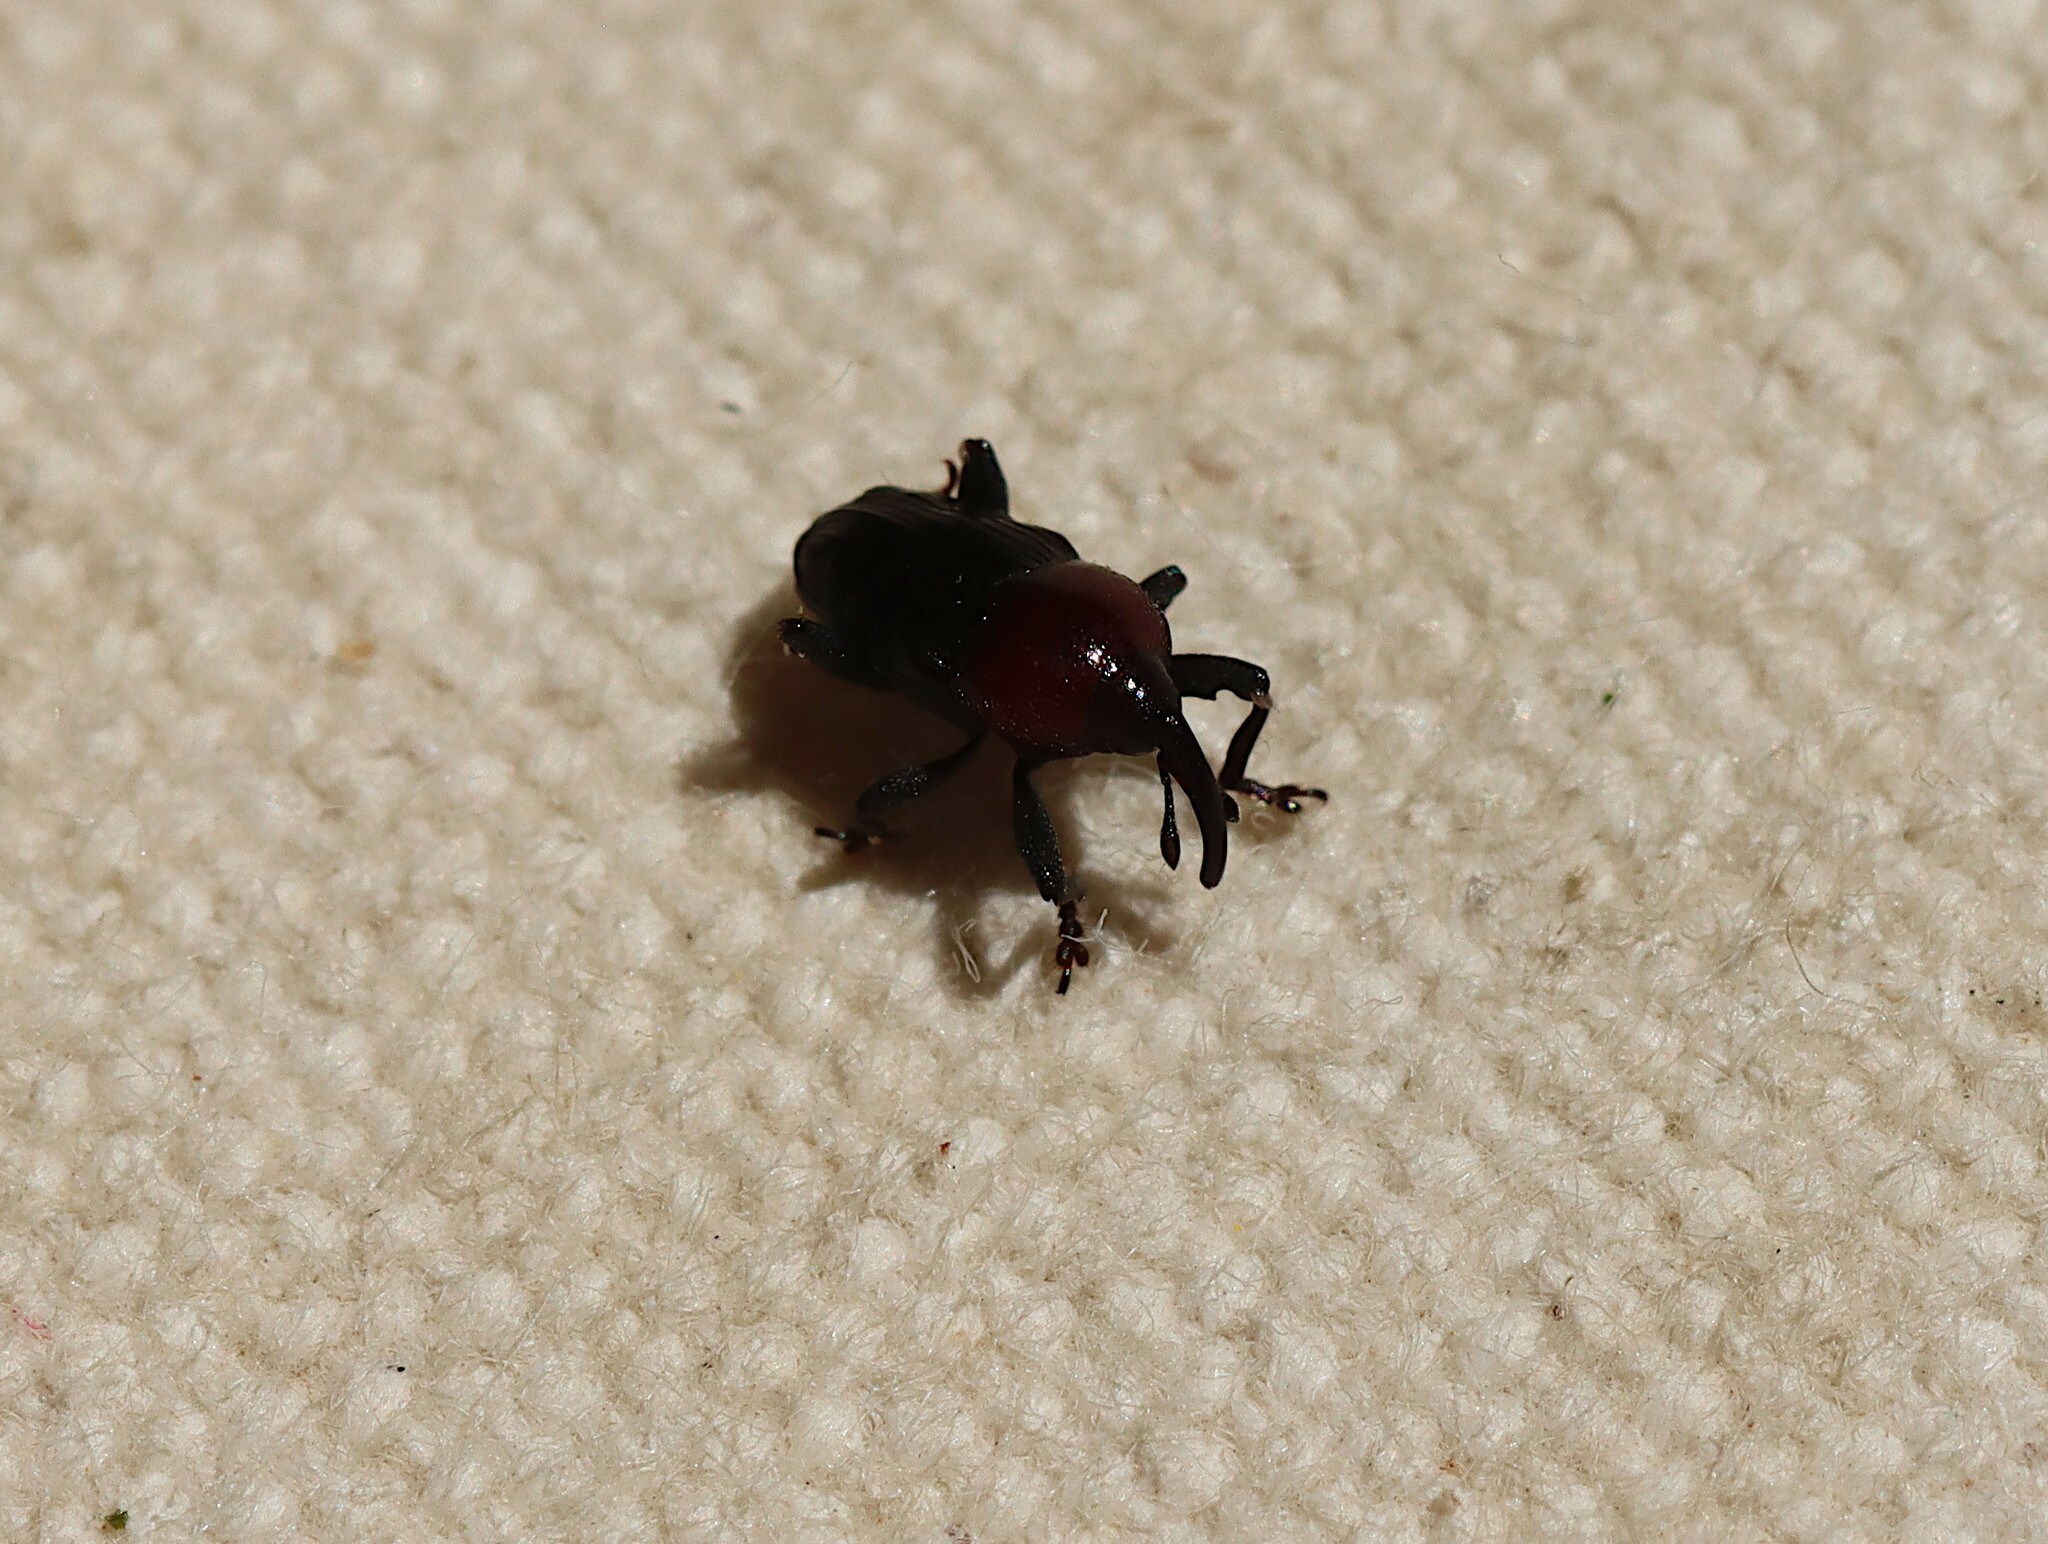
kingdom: Animalia
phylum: Arthropoda
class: Insecta
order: Coleoptera
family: Curculionidae
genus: Madarellus
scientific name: Madarellus undulatus
